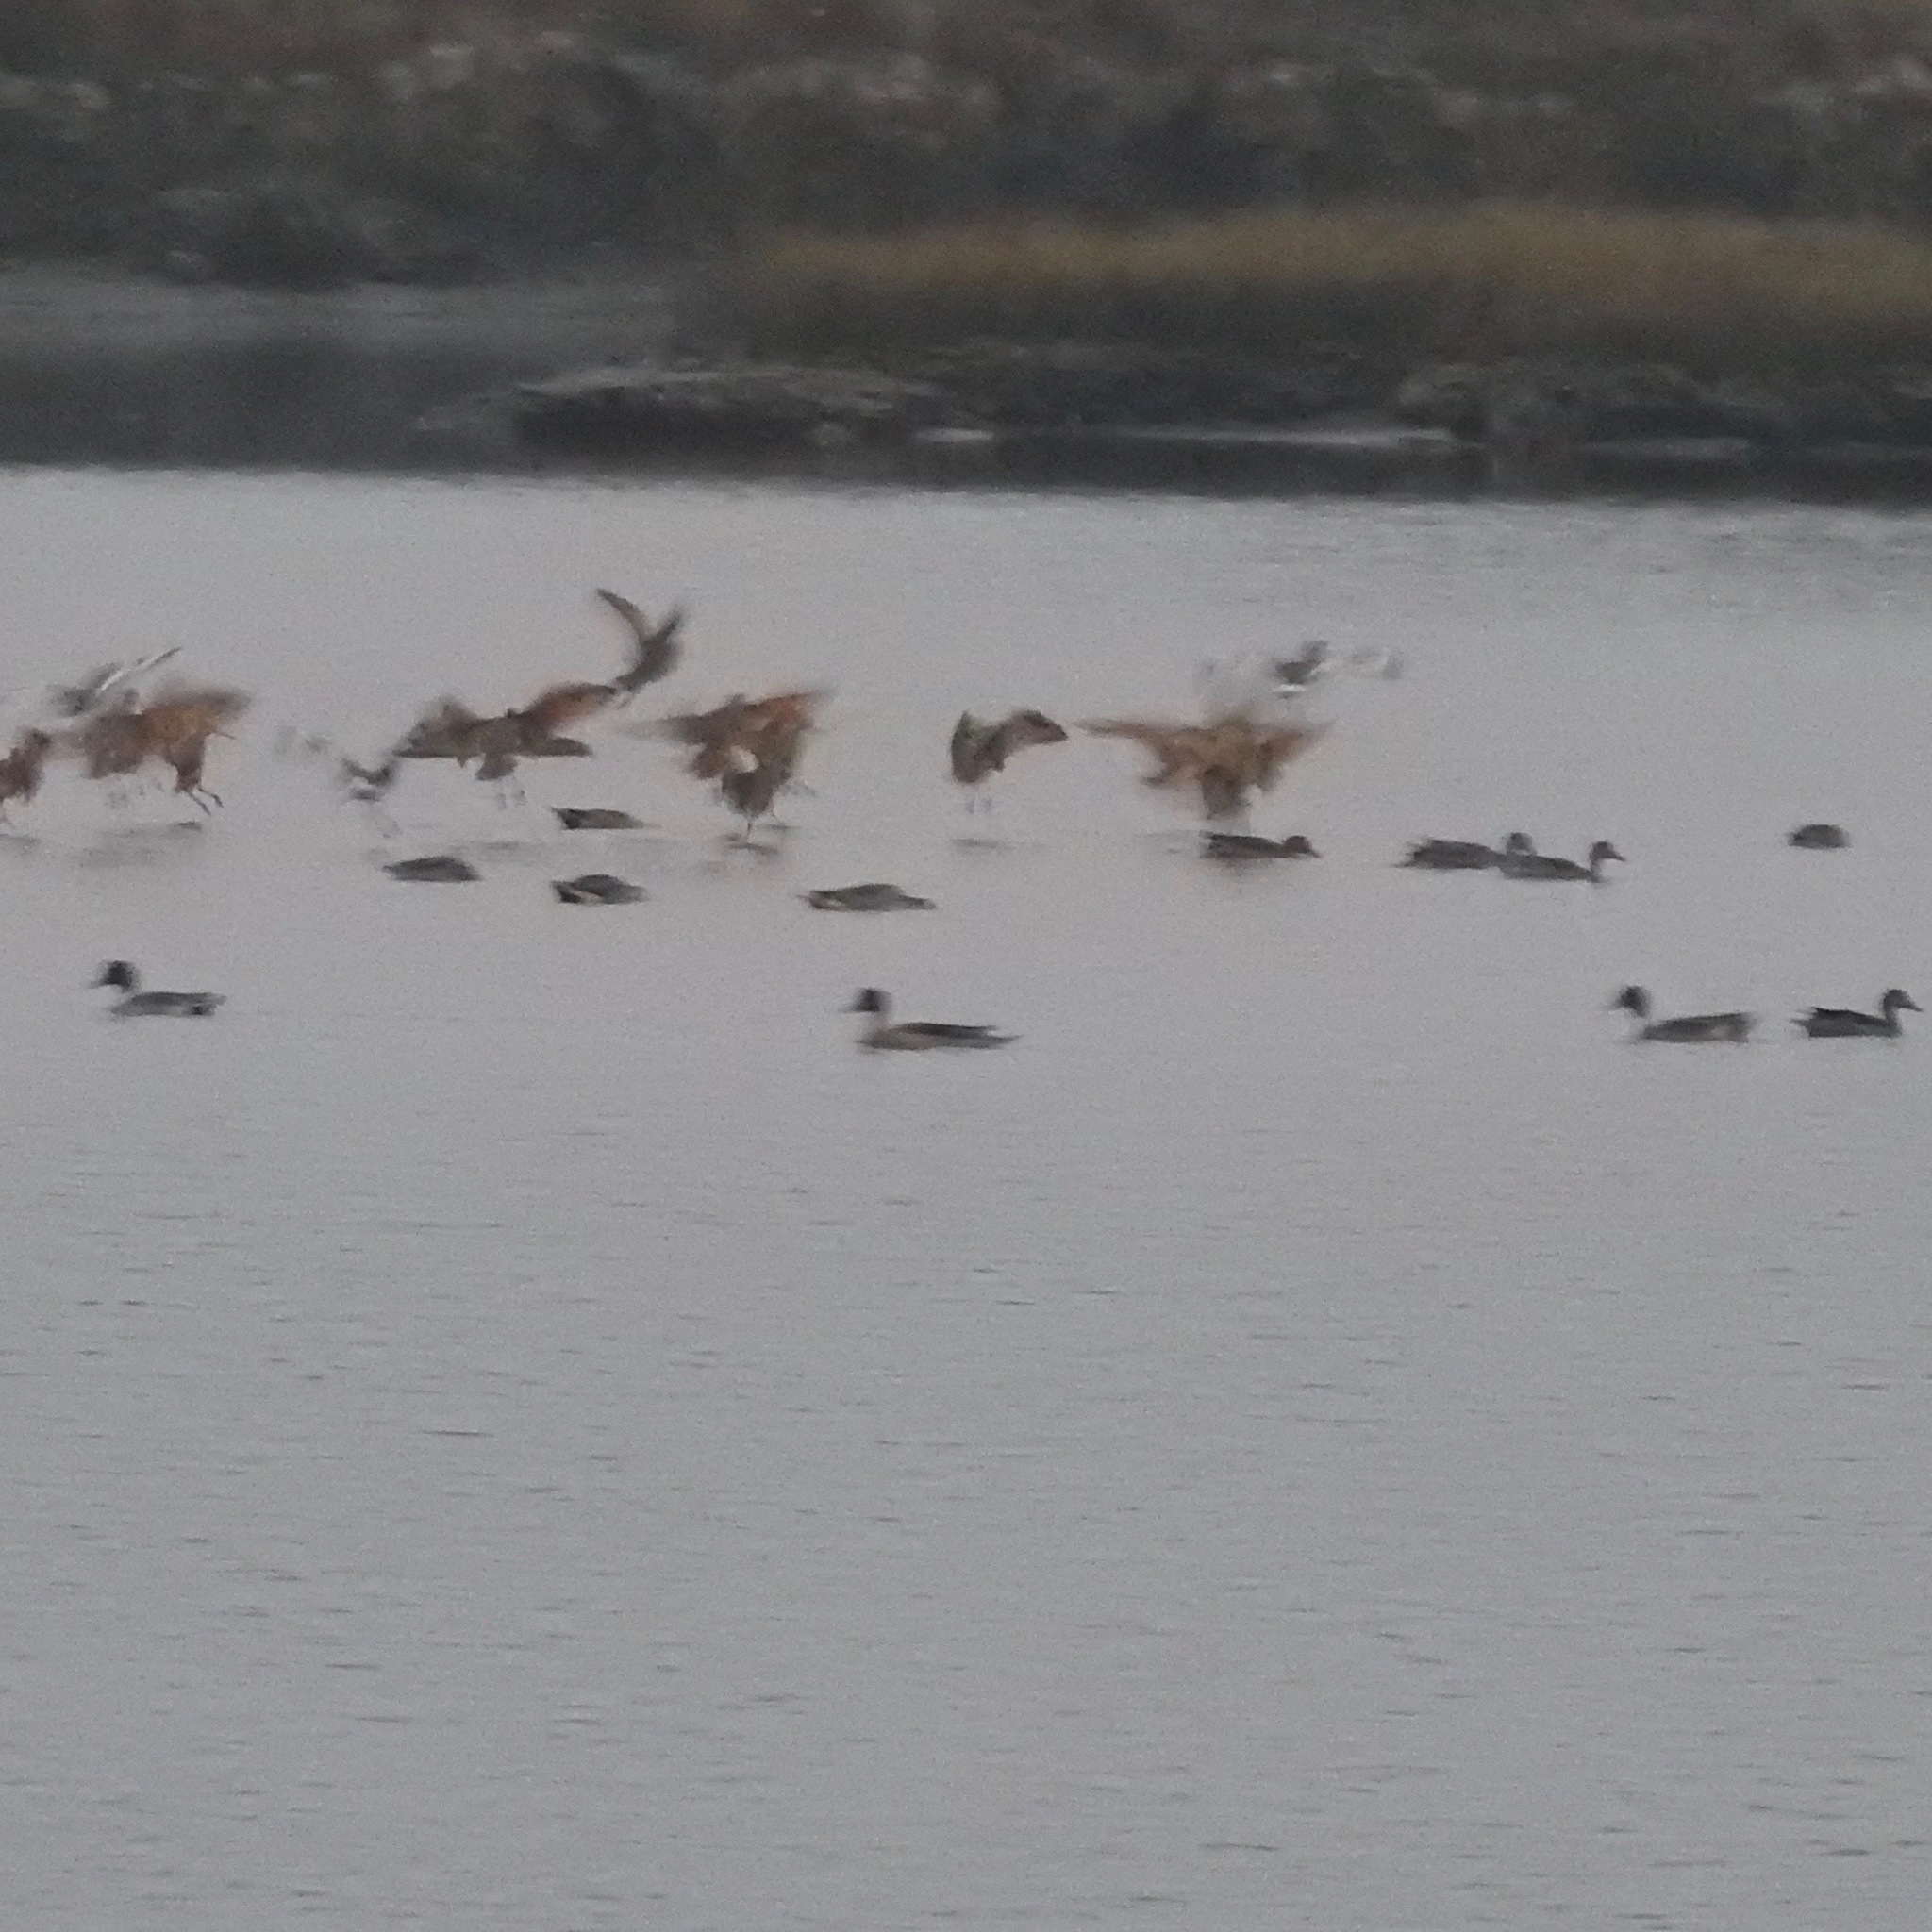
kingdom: Animalia
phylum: Chordata
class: Aves
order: Anseriformes
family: Anatidae
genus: Anas
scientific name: Anas acuta
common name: Northern pintail
